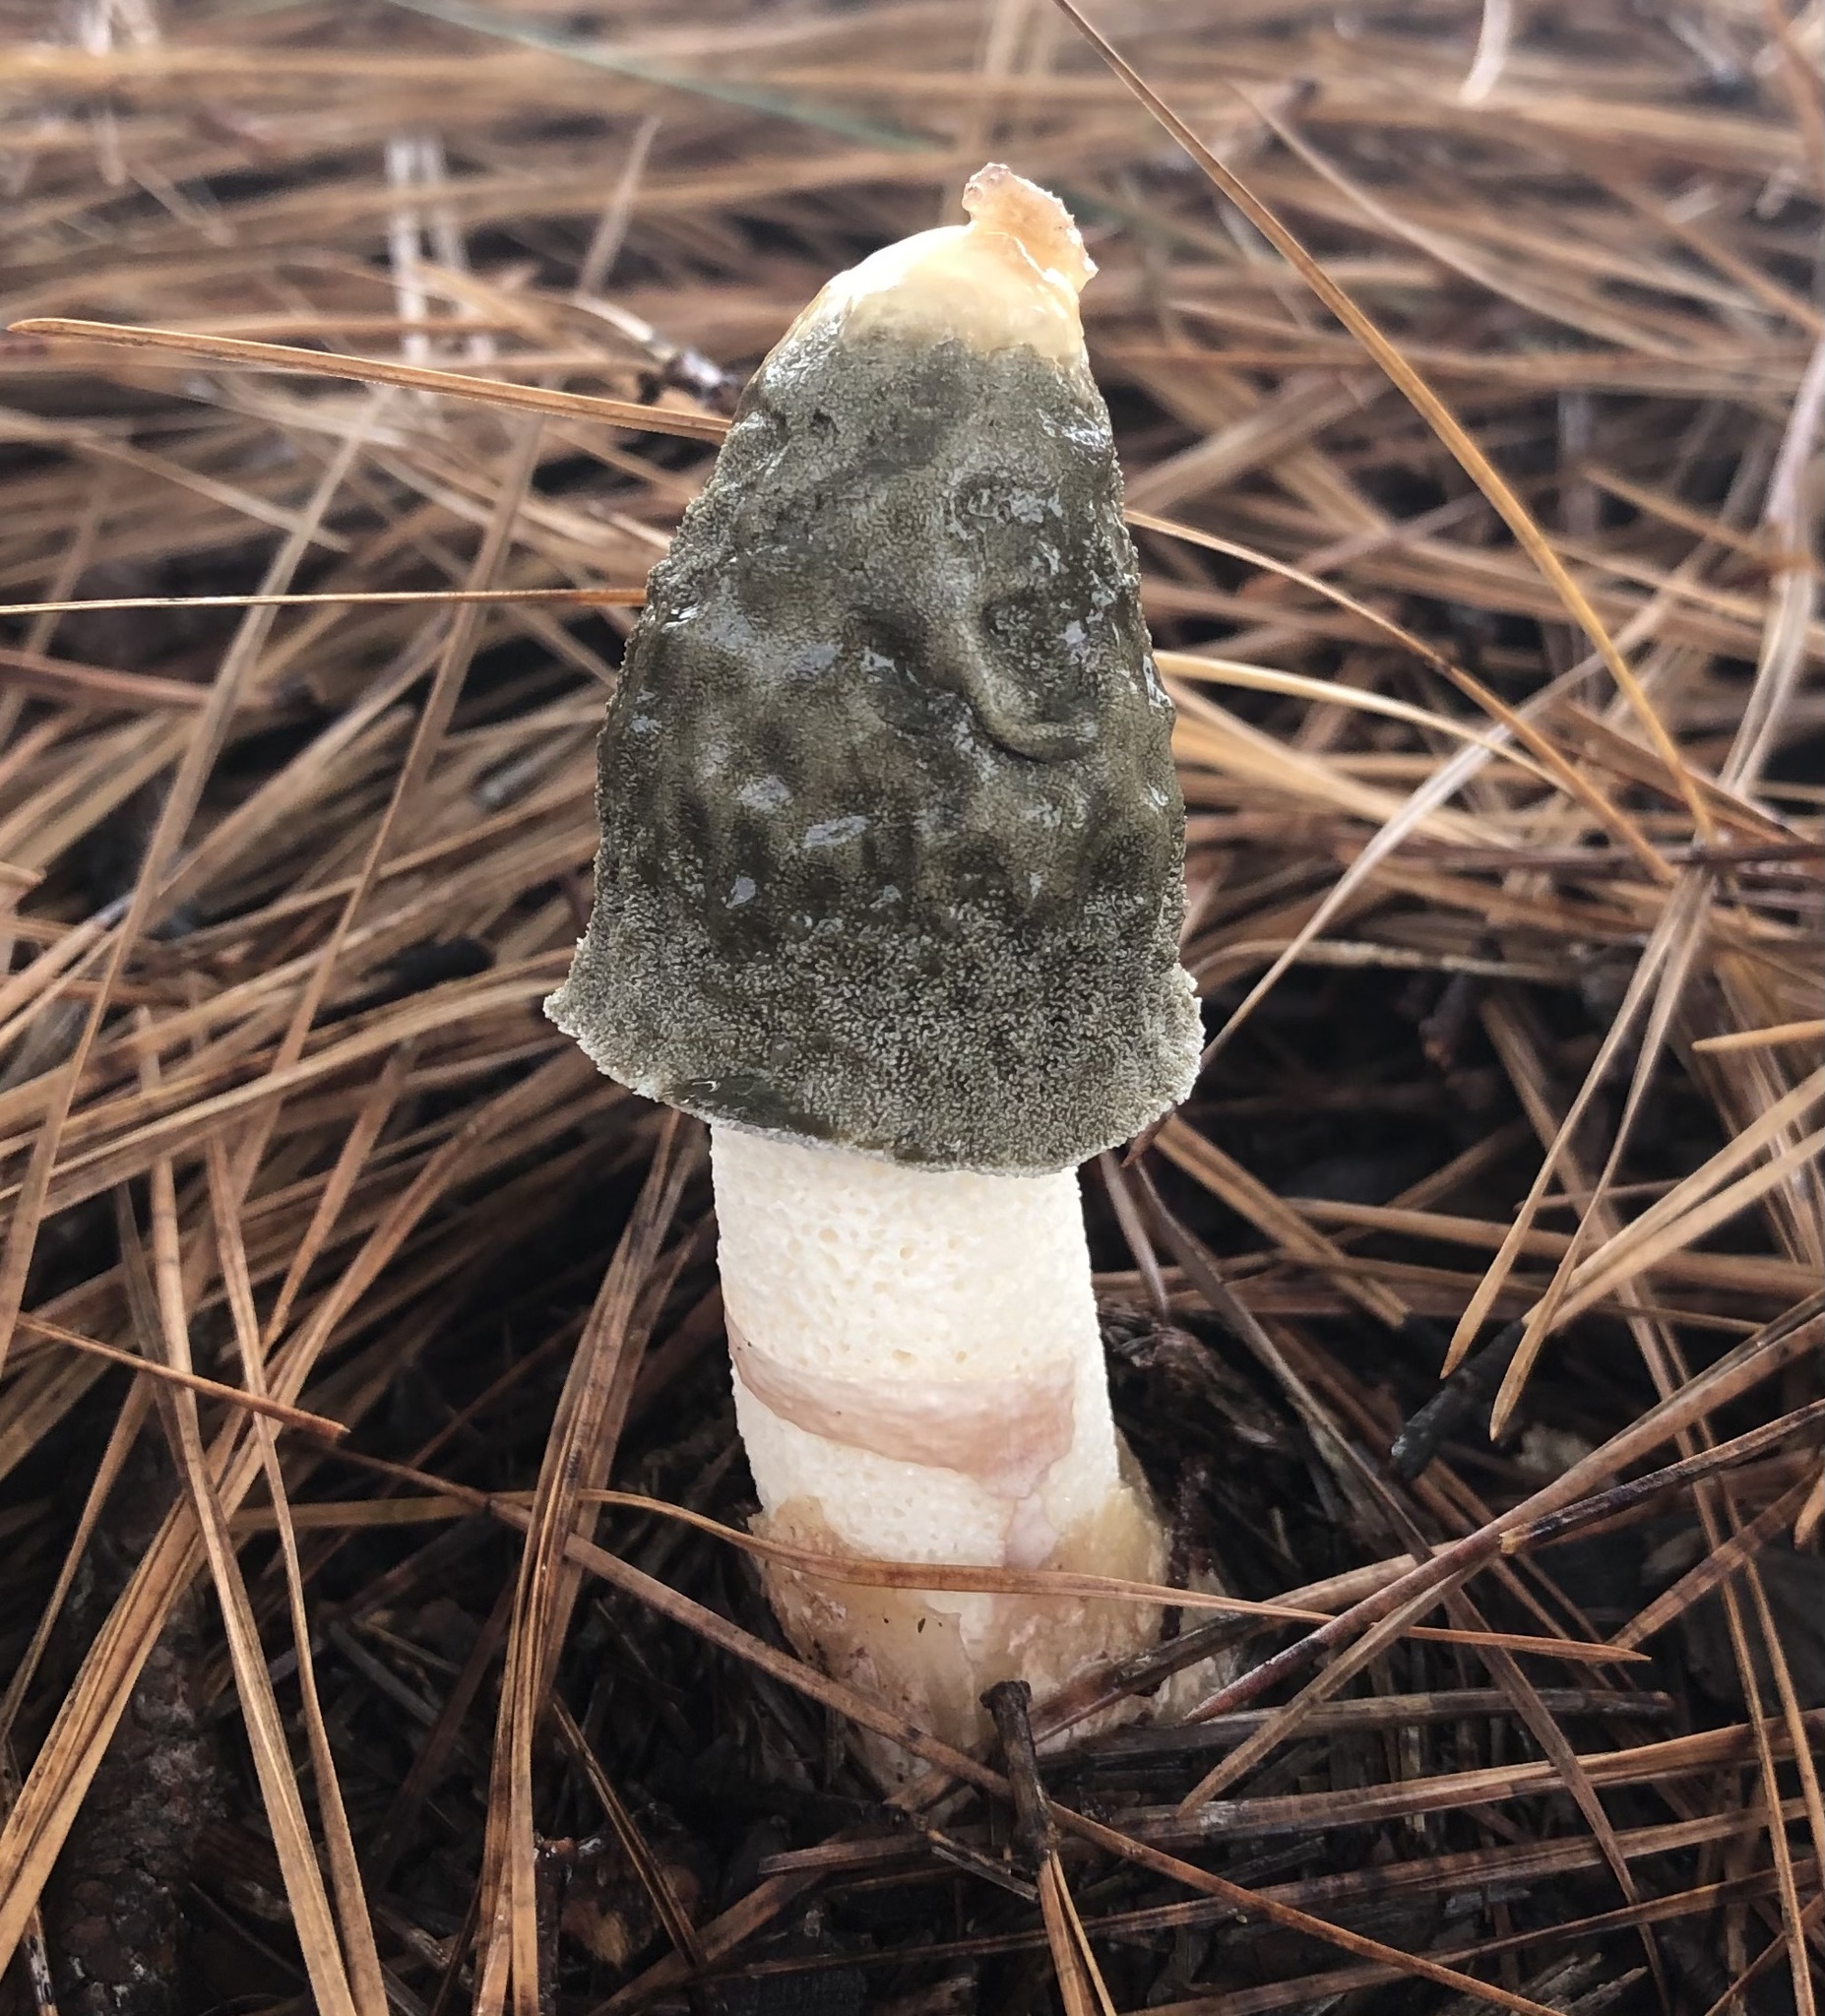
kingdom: Fungi
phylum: Basidiomycota
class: Agaricomycetes
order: Phallales
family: Phallaceae
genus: Phallus
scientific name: Phallus ravenelii
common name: Ravenel's stinkhorn
